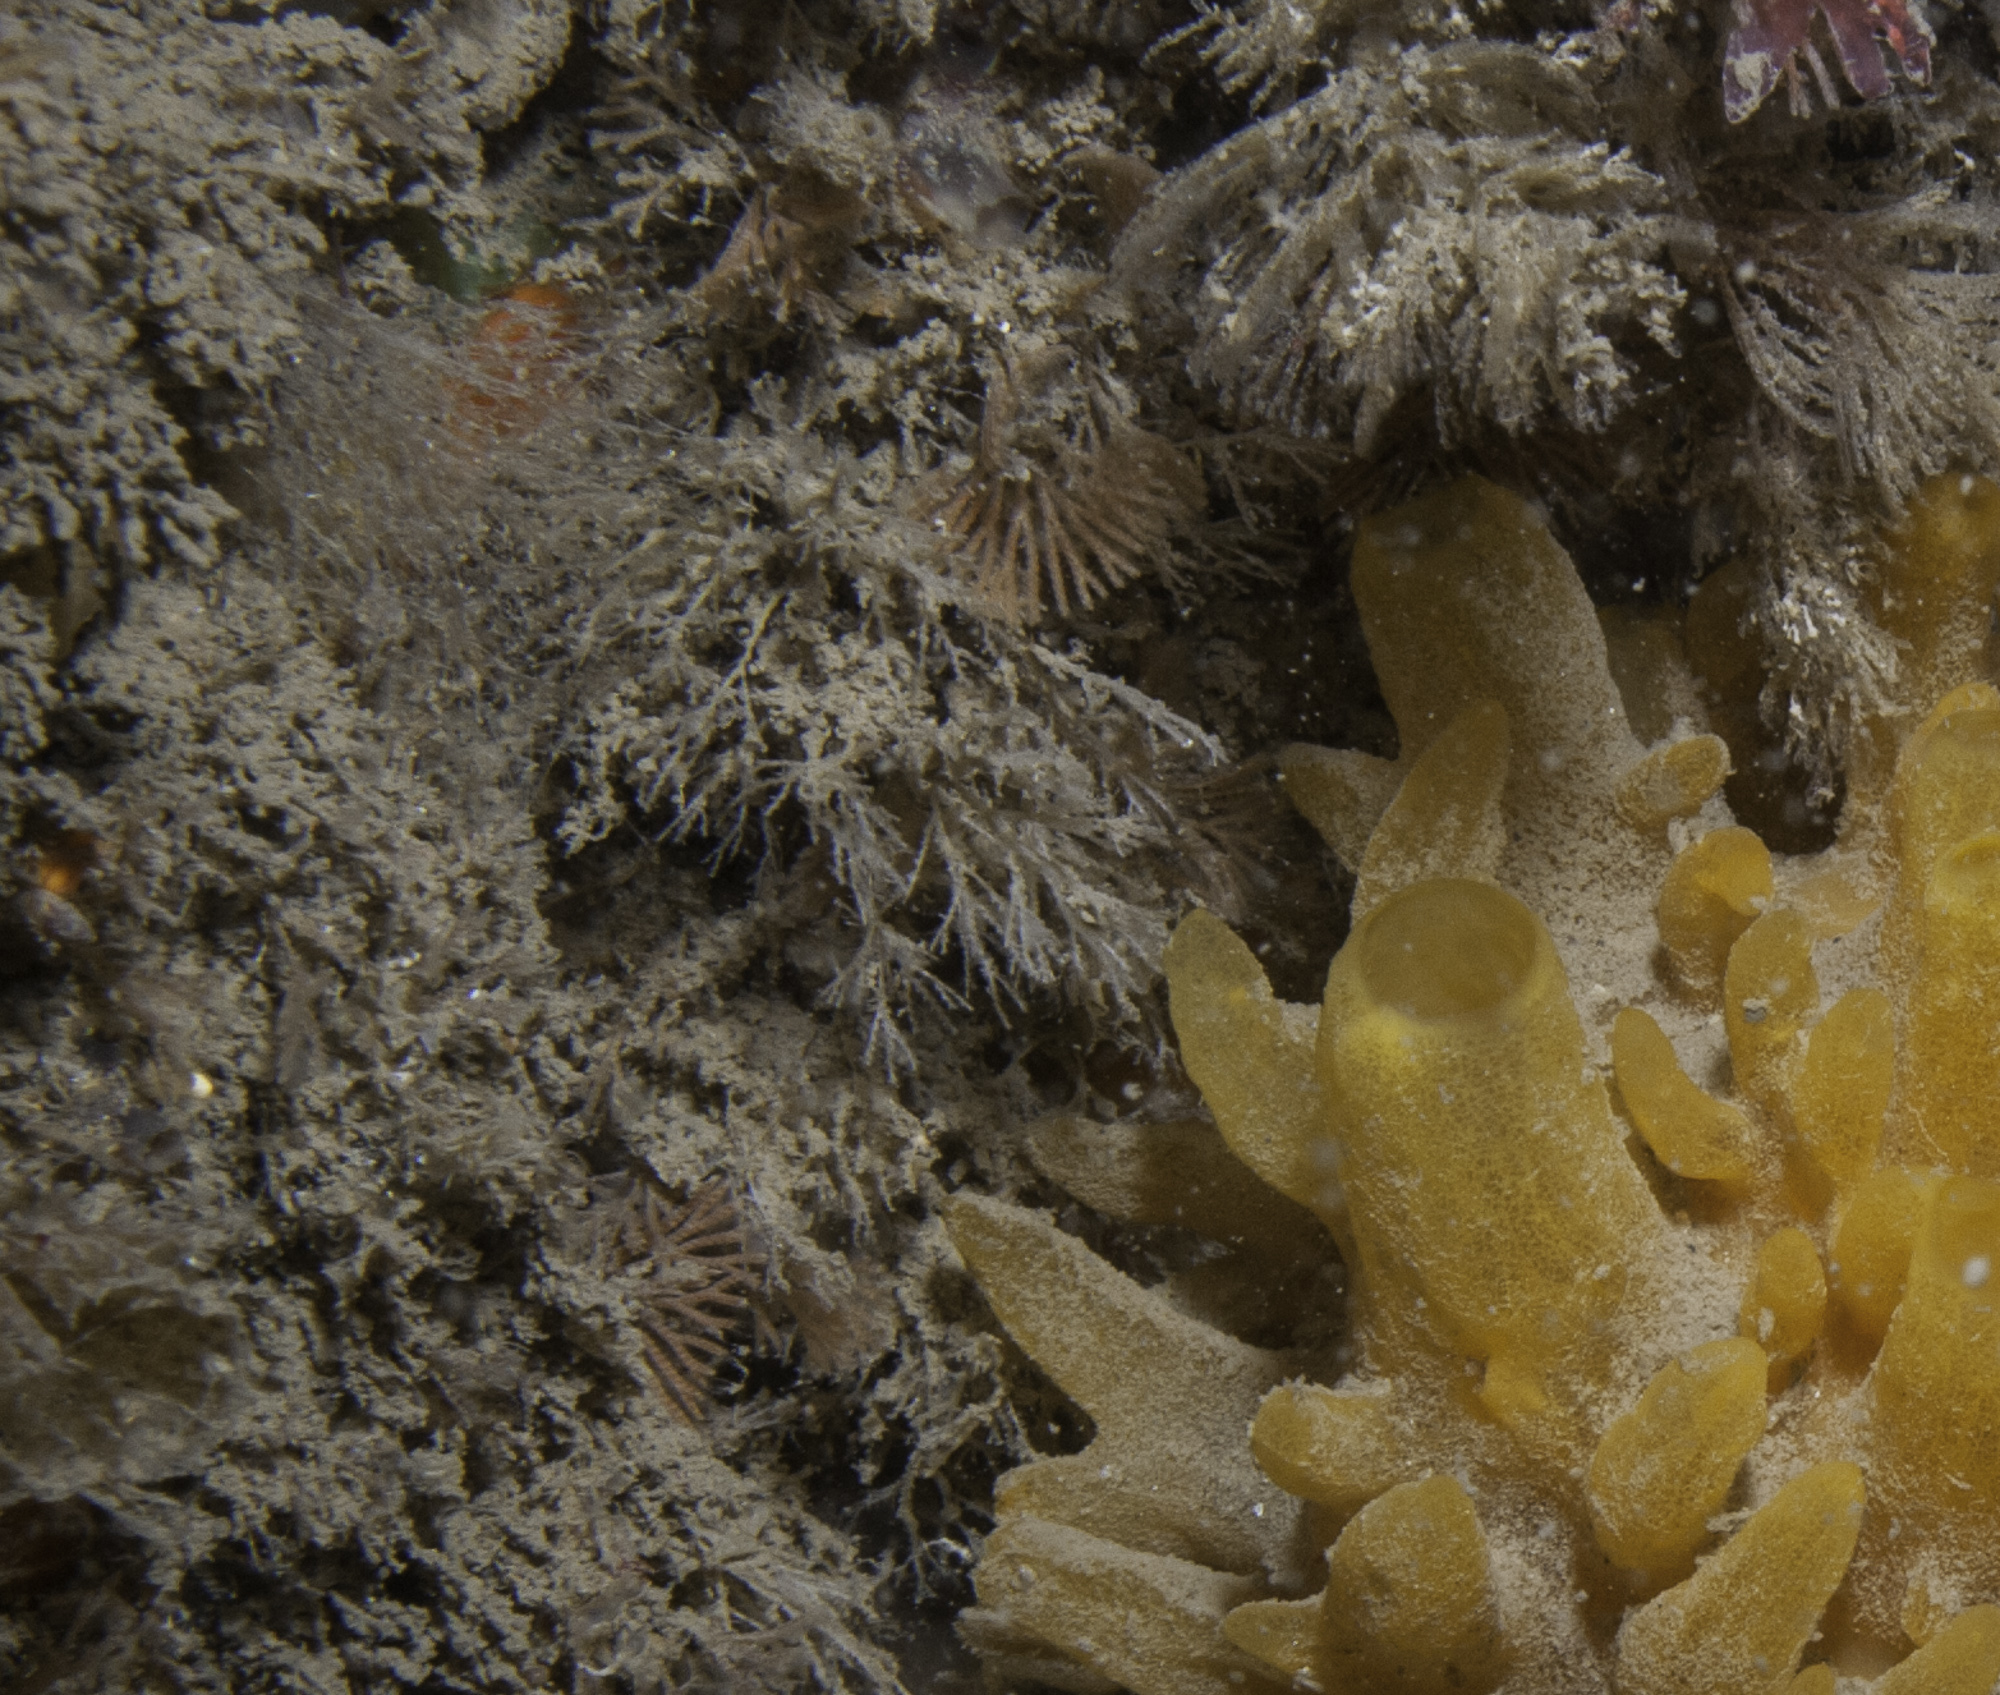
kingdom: Animalia
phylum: Bryozoa
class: Gymnolaemata
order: Cheilostomatida
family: Candidae
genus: Caberea
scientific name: Caberea boryi
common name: Bryozoan
